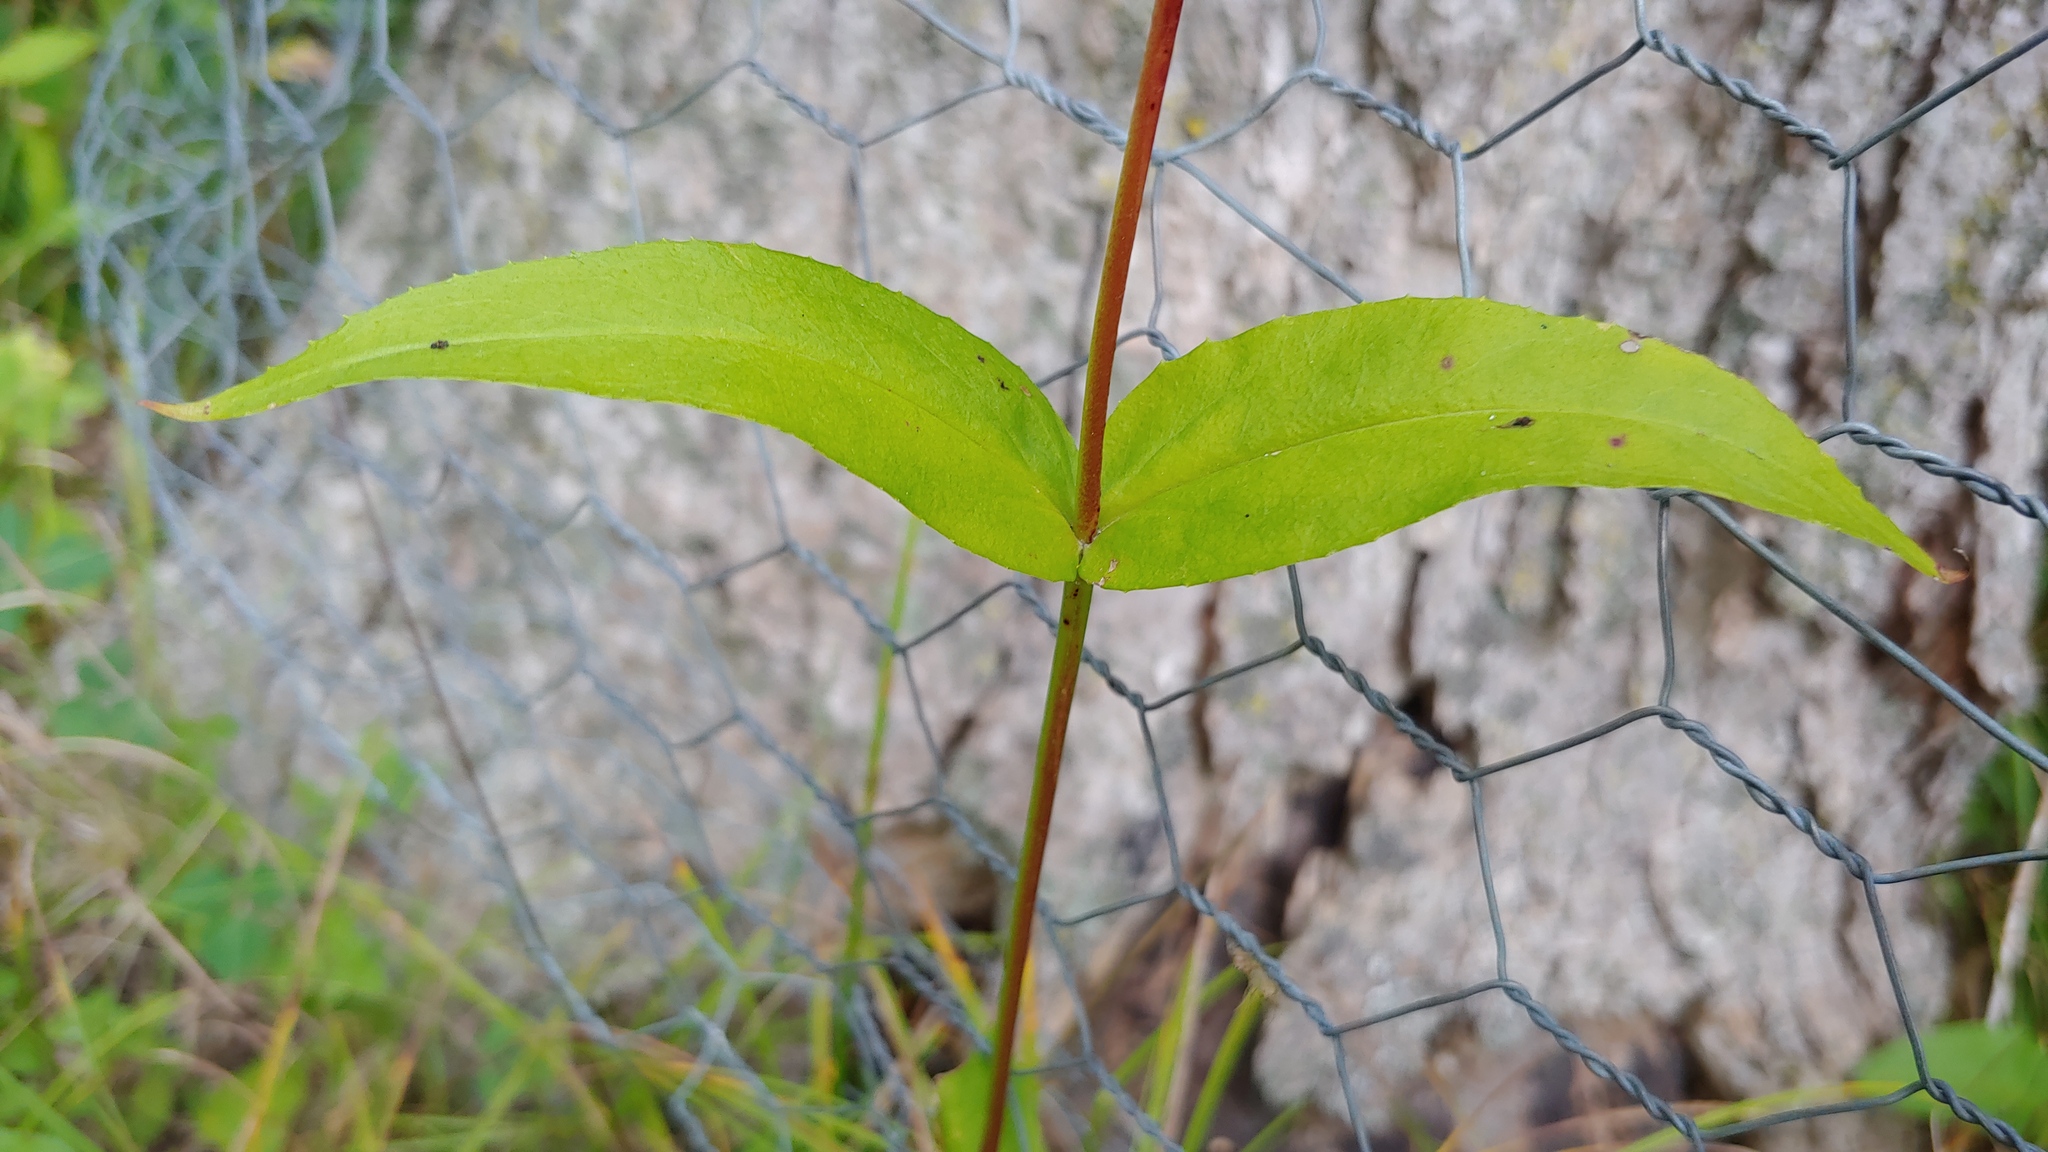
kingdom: Plantae
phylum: Tracheophyta
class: Magnoliopsida
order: Lamiales
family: Plantaginaceae
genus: Penstemon
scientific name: Penstemon digitalis
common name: Foxglove beardtongue
